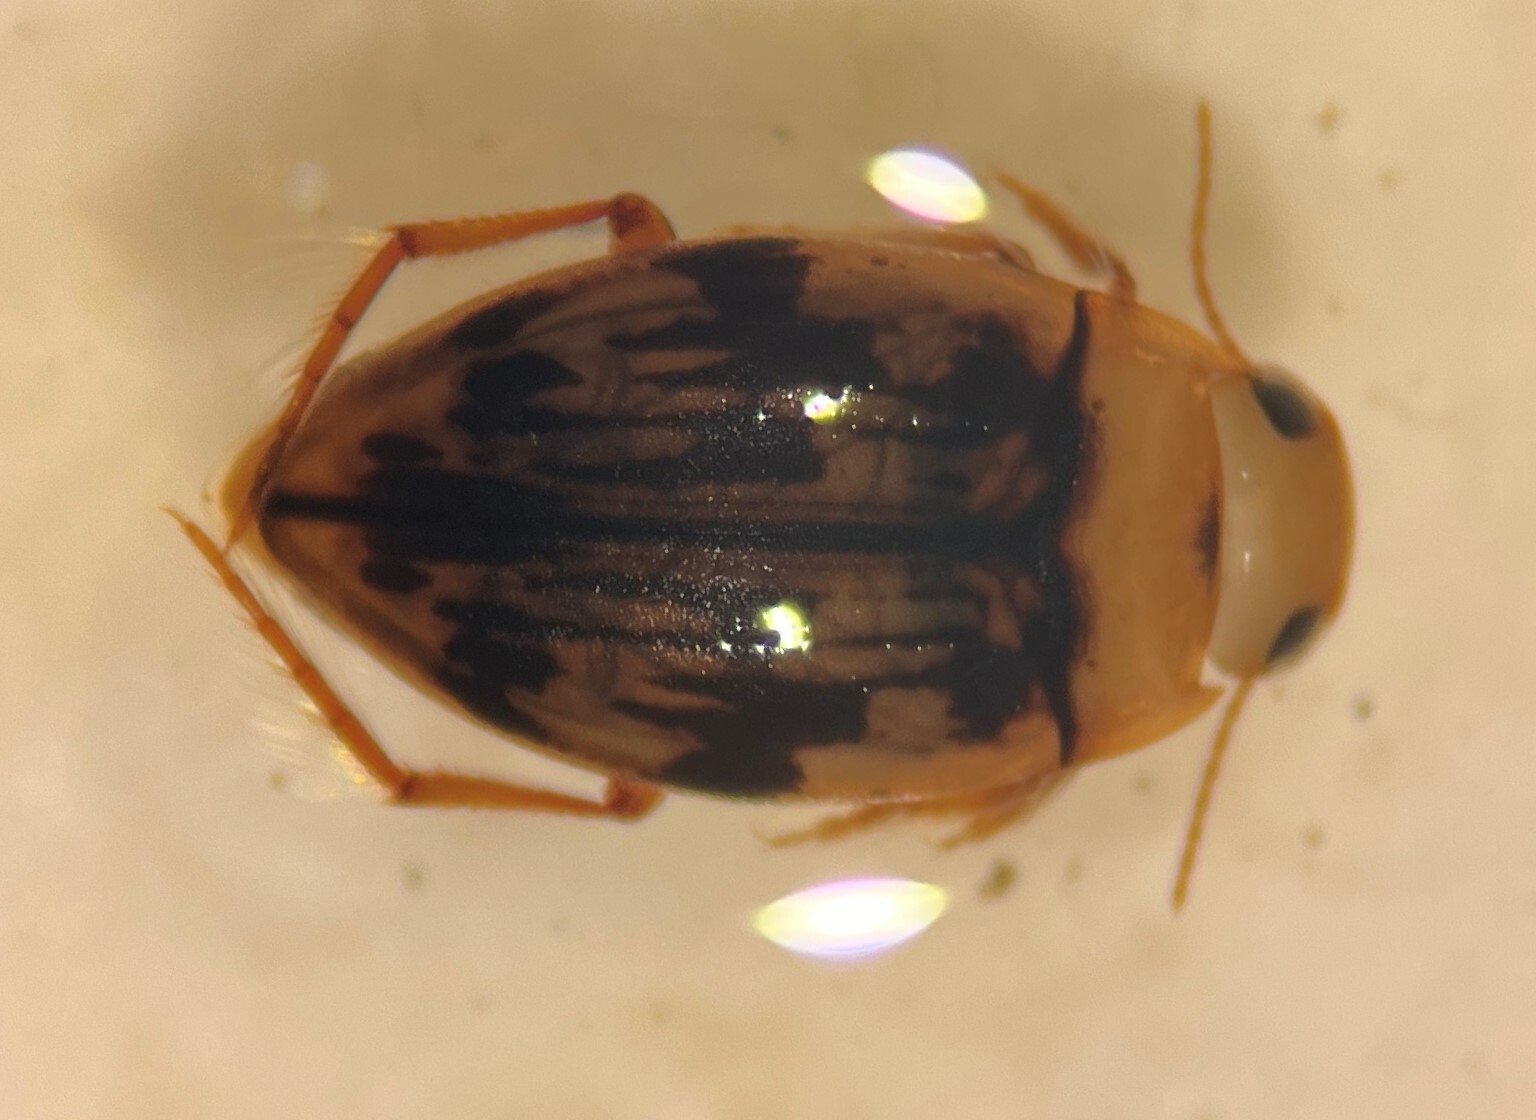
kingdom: Animalia
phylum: Arthropoda
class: Insecta
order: Coleoptera
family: Dytiscidae
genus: Neoporus
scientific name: Neoporus dimidiatus
